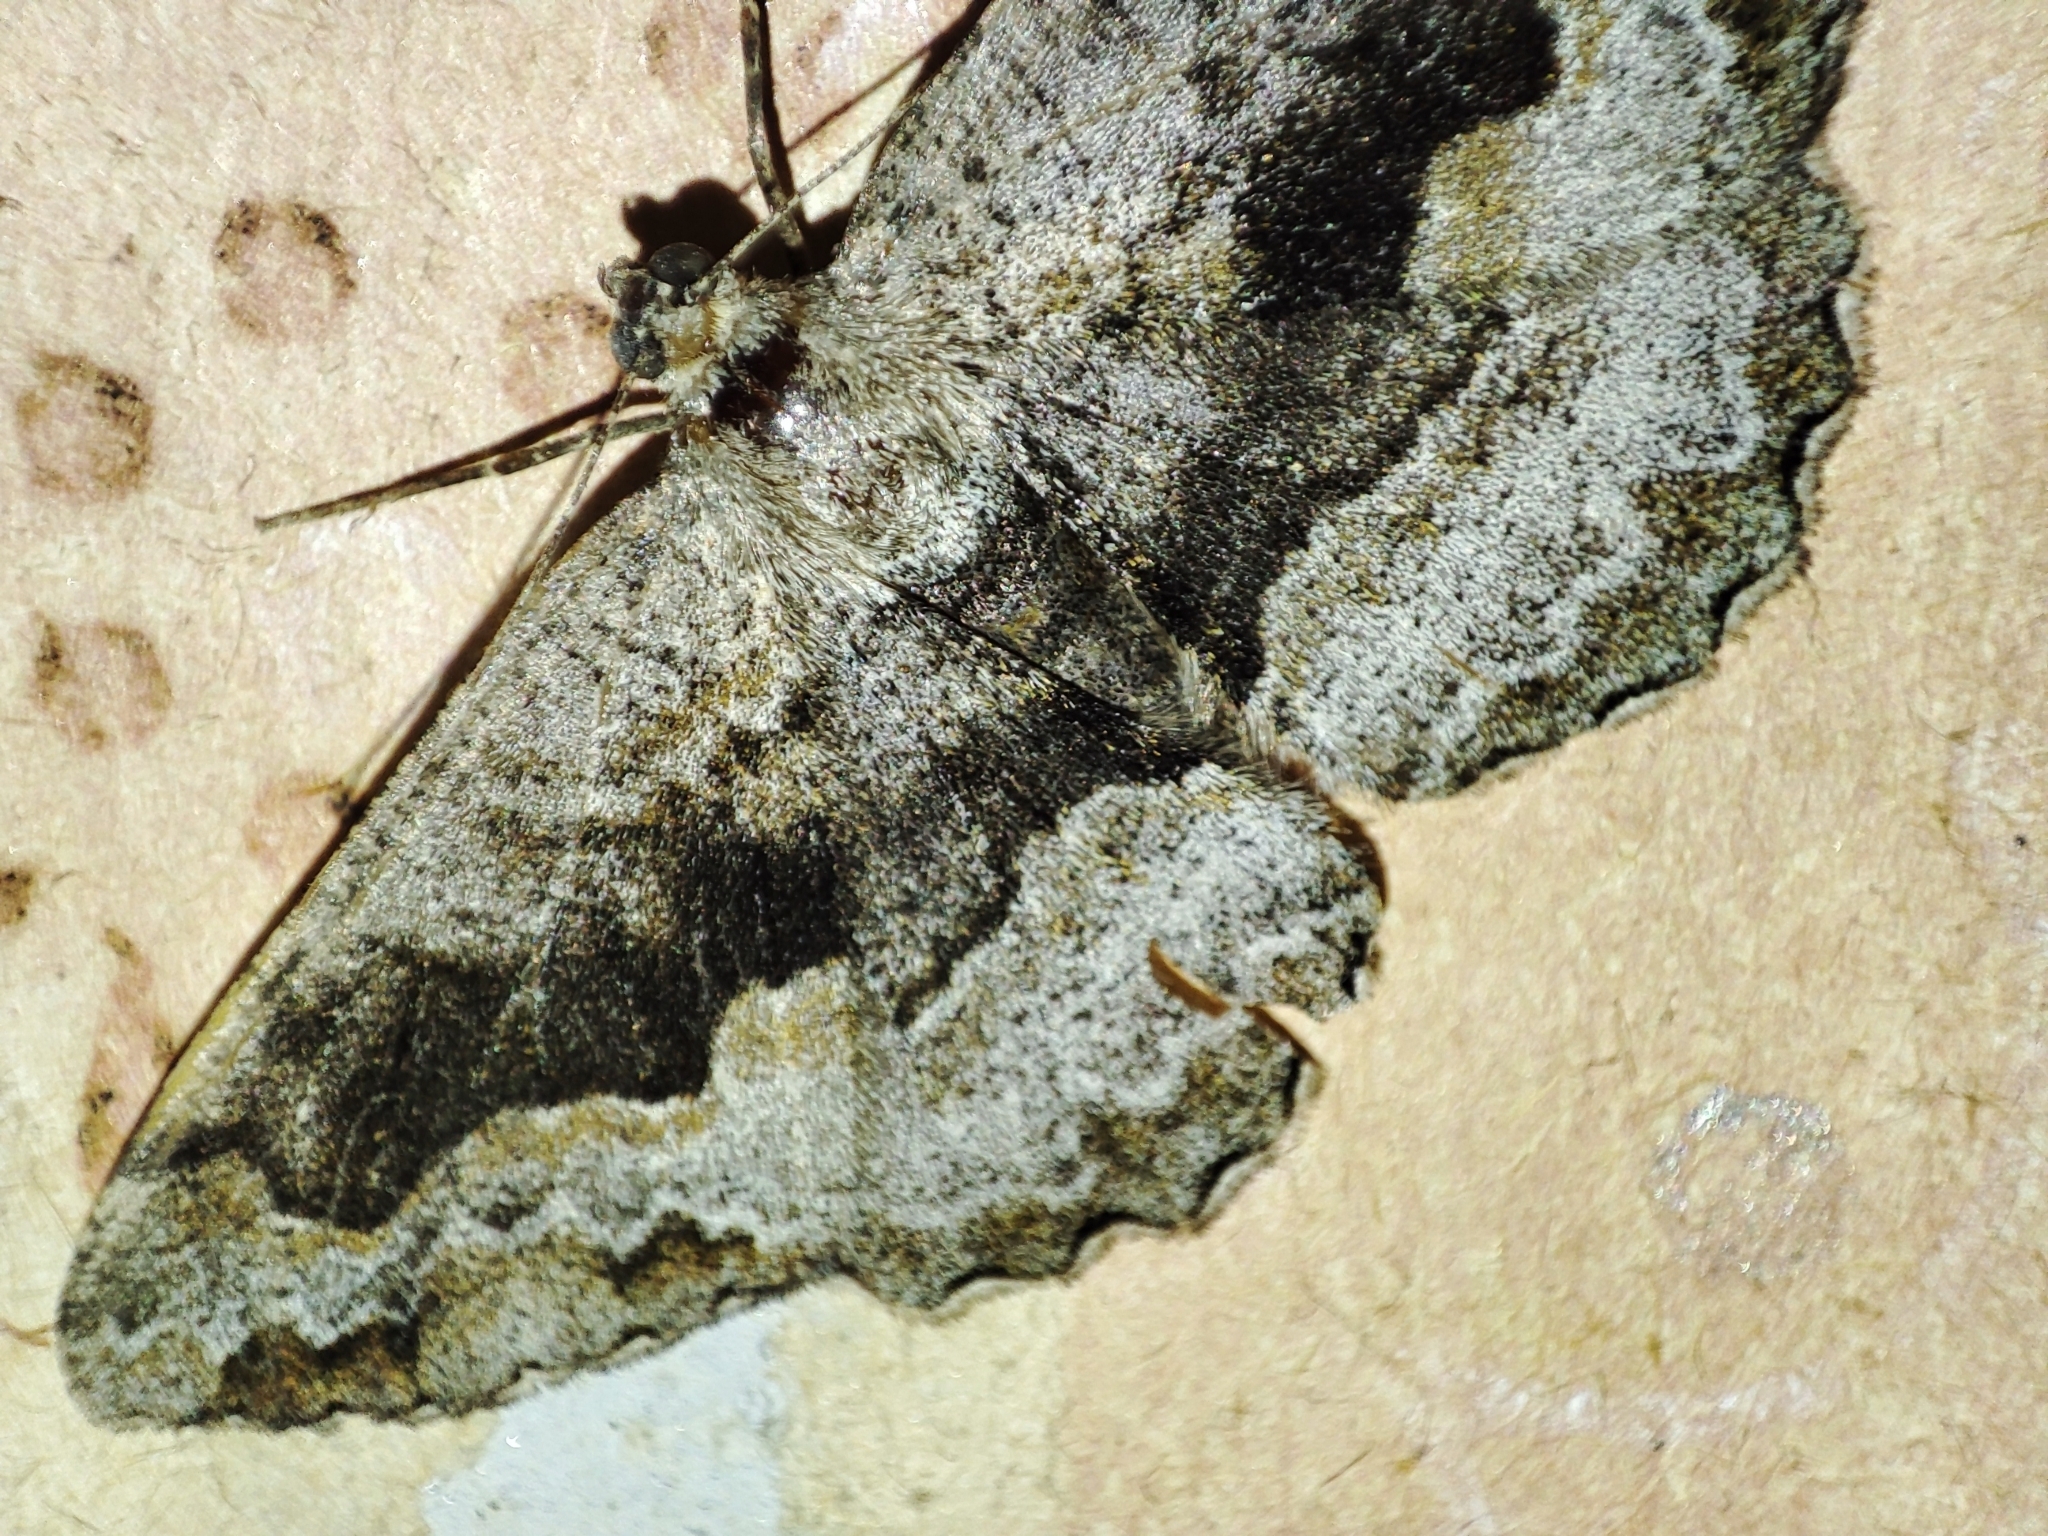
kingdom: Animalia
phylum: Arthropoda
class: Insecta
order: Lepidoptera
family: Geometridae
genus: Alcis
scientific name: Alcis repandata
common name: Mottled beauty
